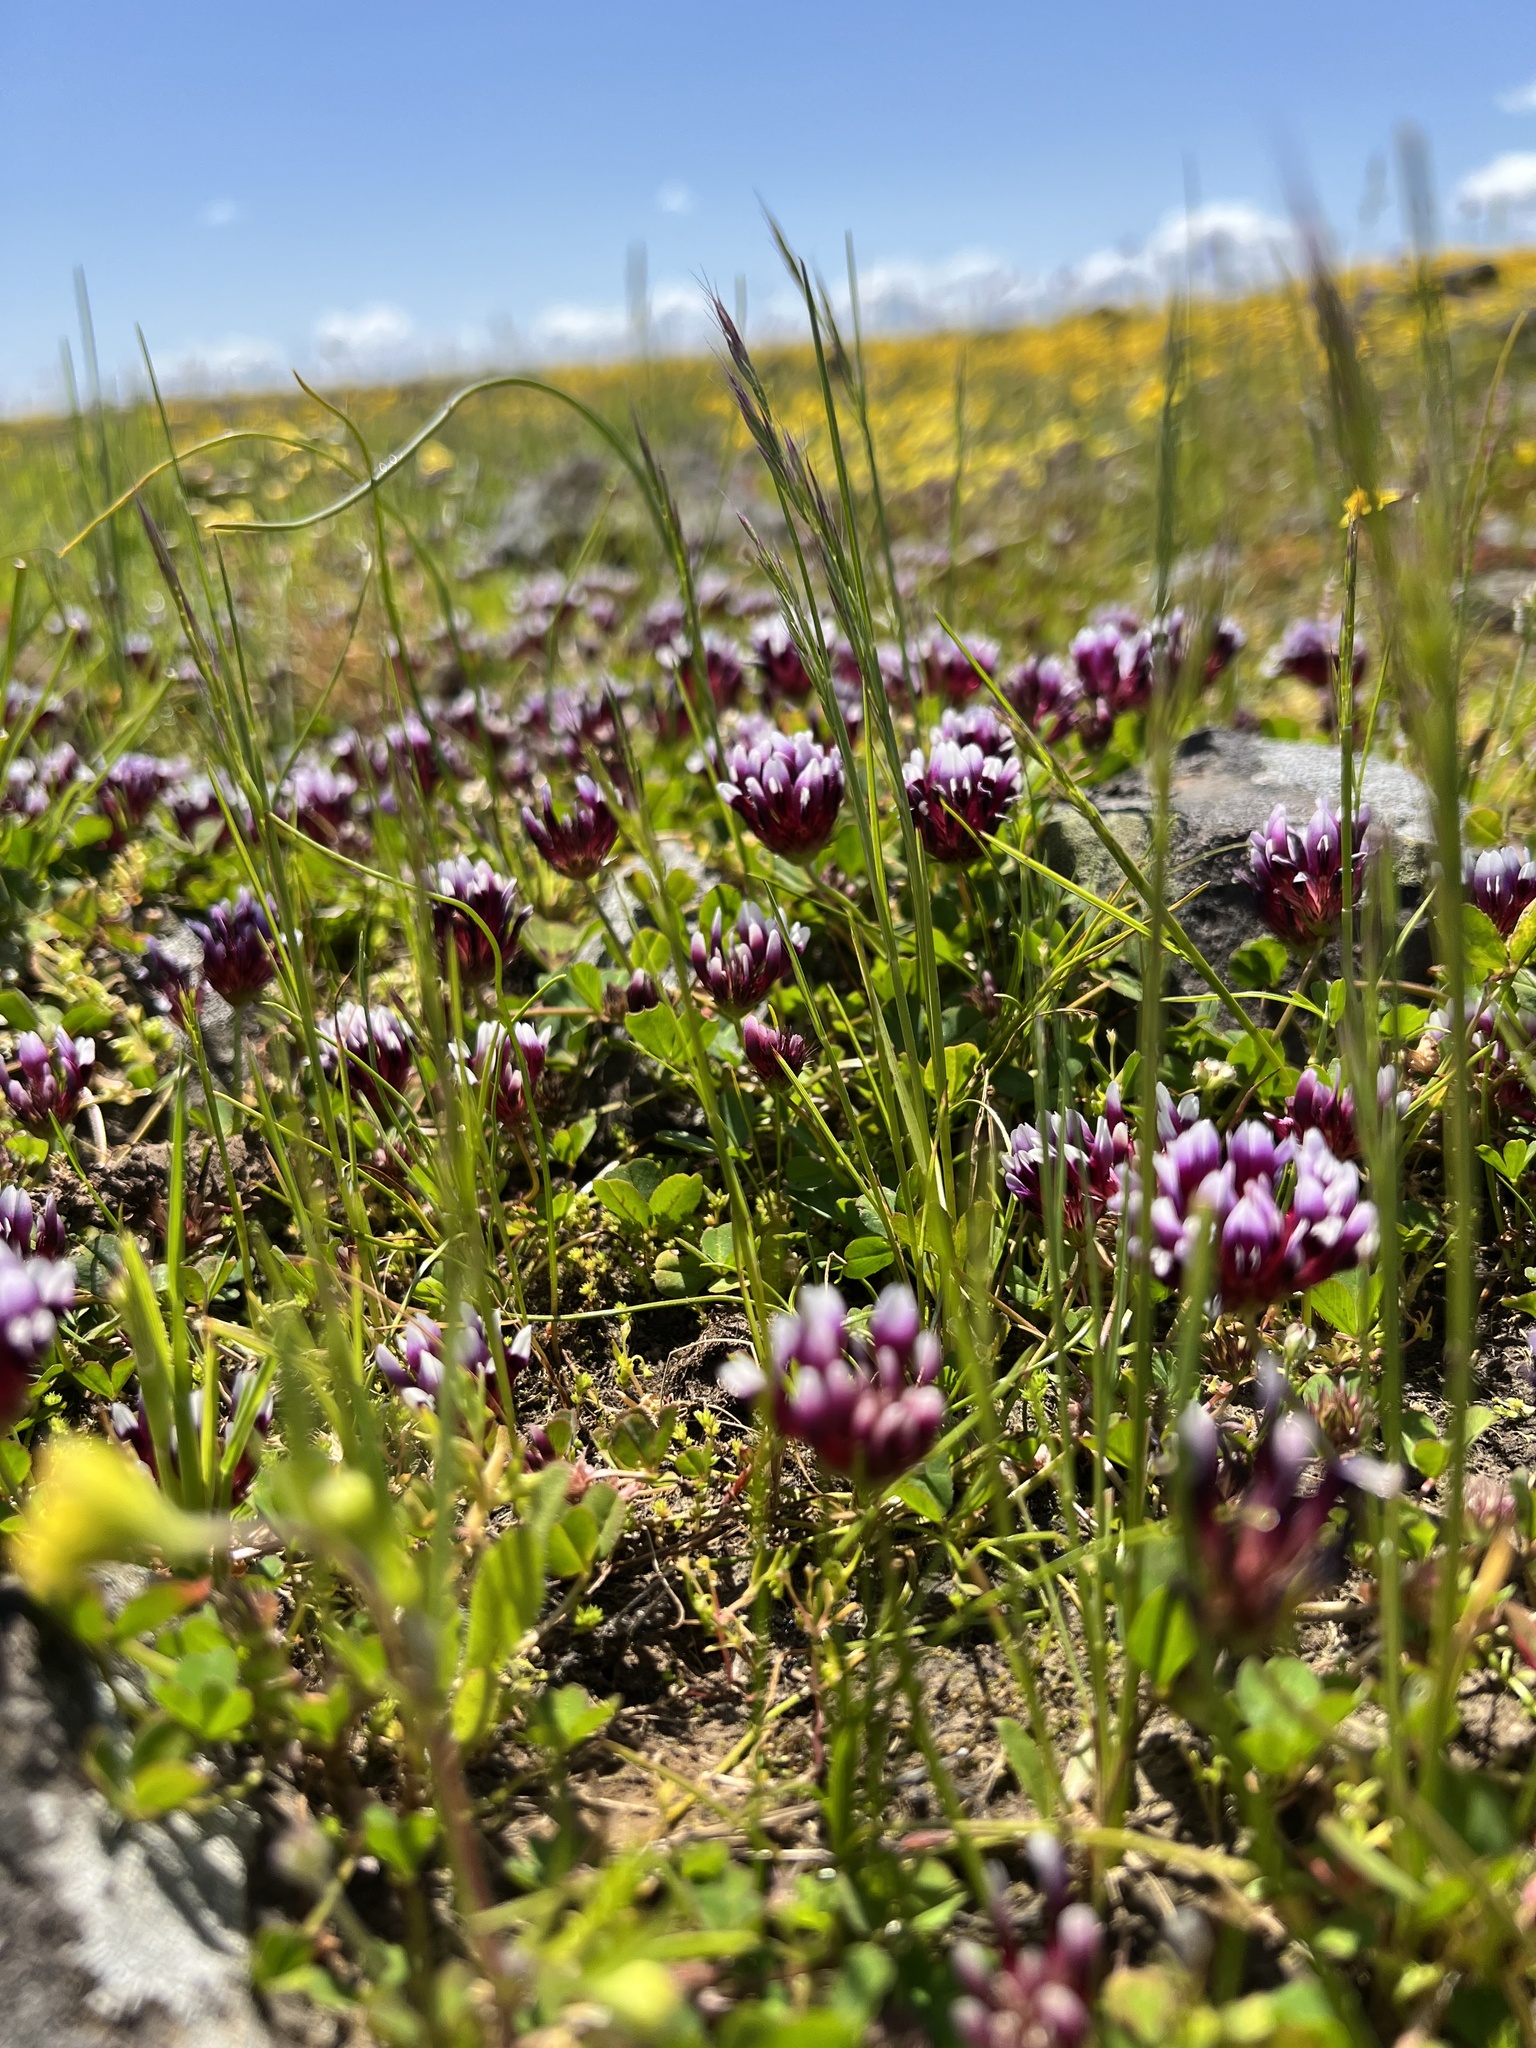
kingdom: Plantae
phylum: Tracheophyta
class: Magnoliopsida
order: Fabales
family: Fabaceae
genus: Trifolium
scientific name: Trifolium variegatum
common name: Whitetip clover
